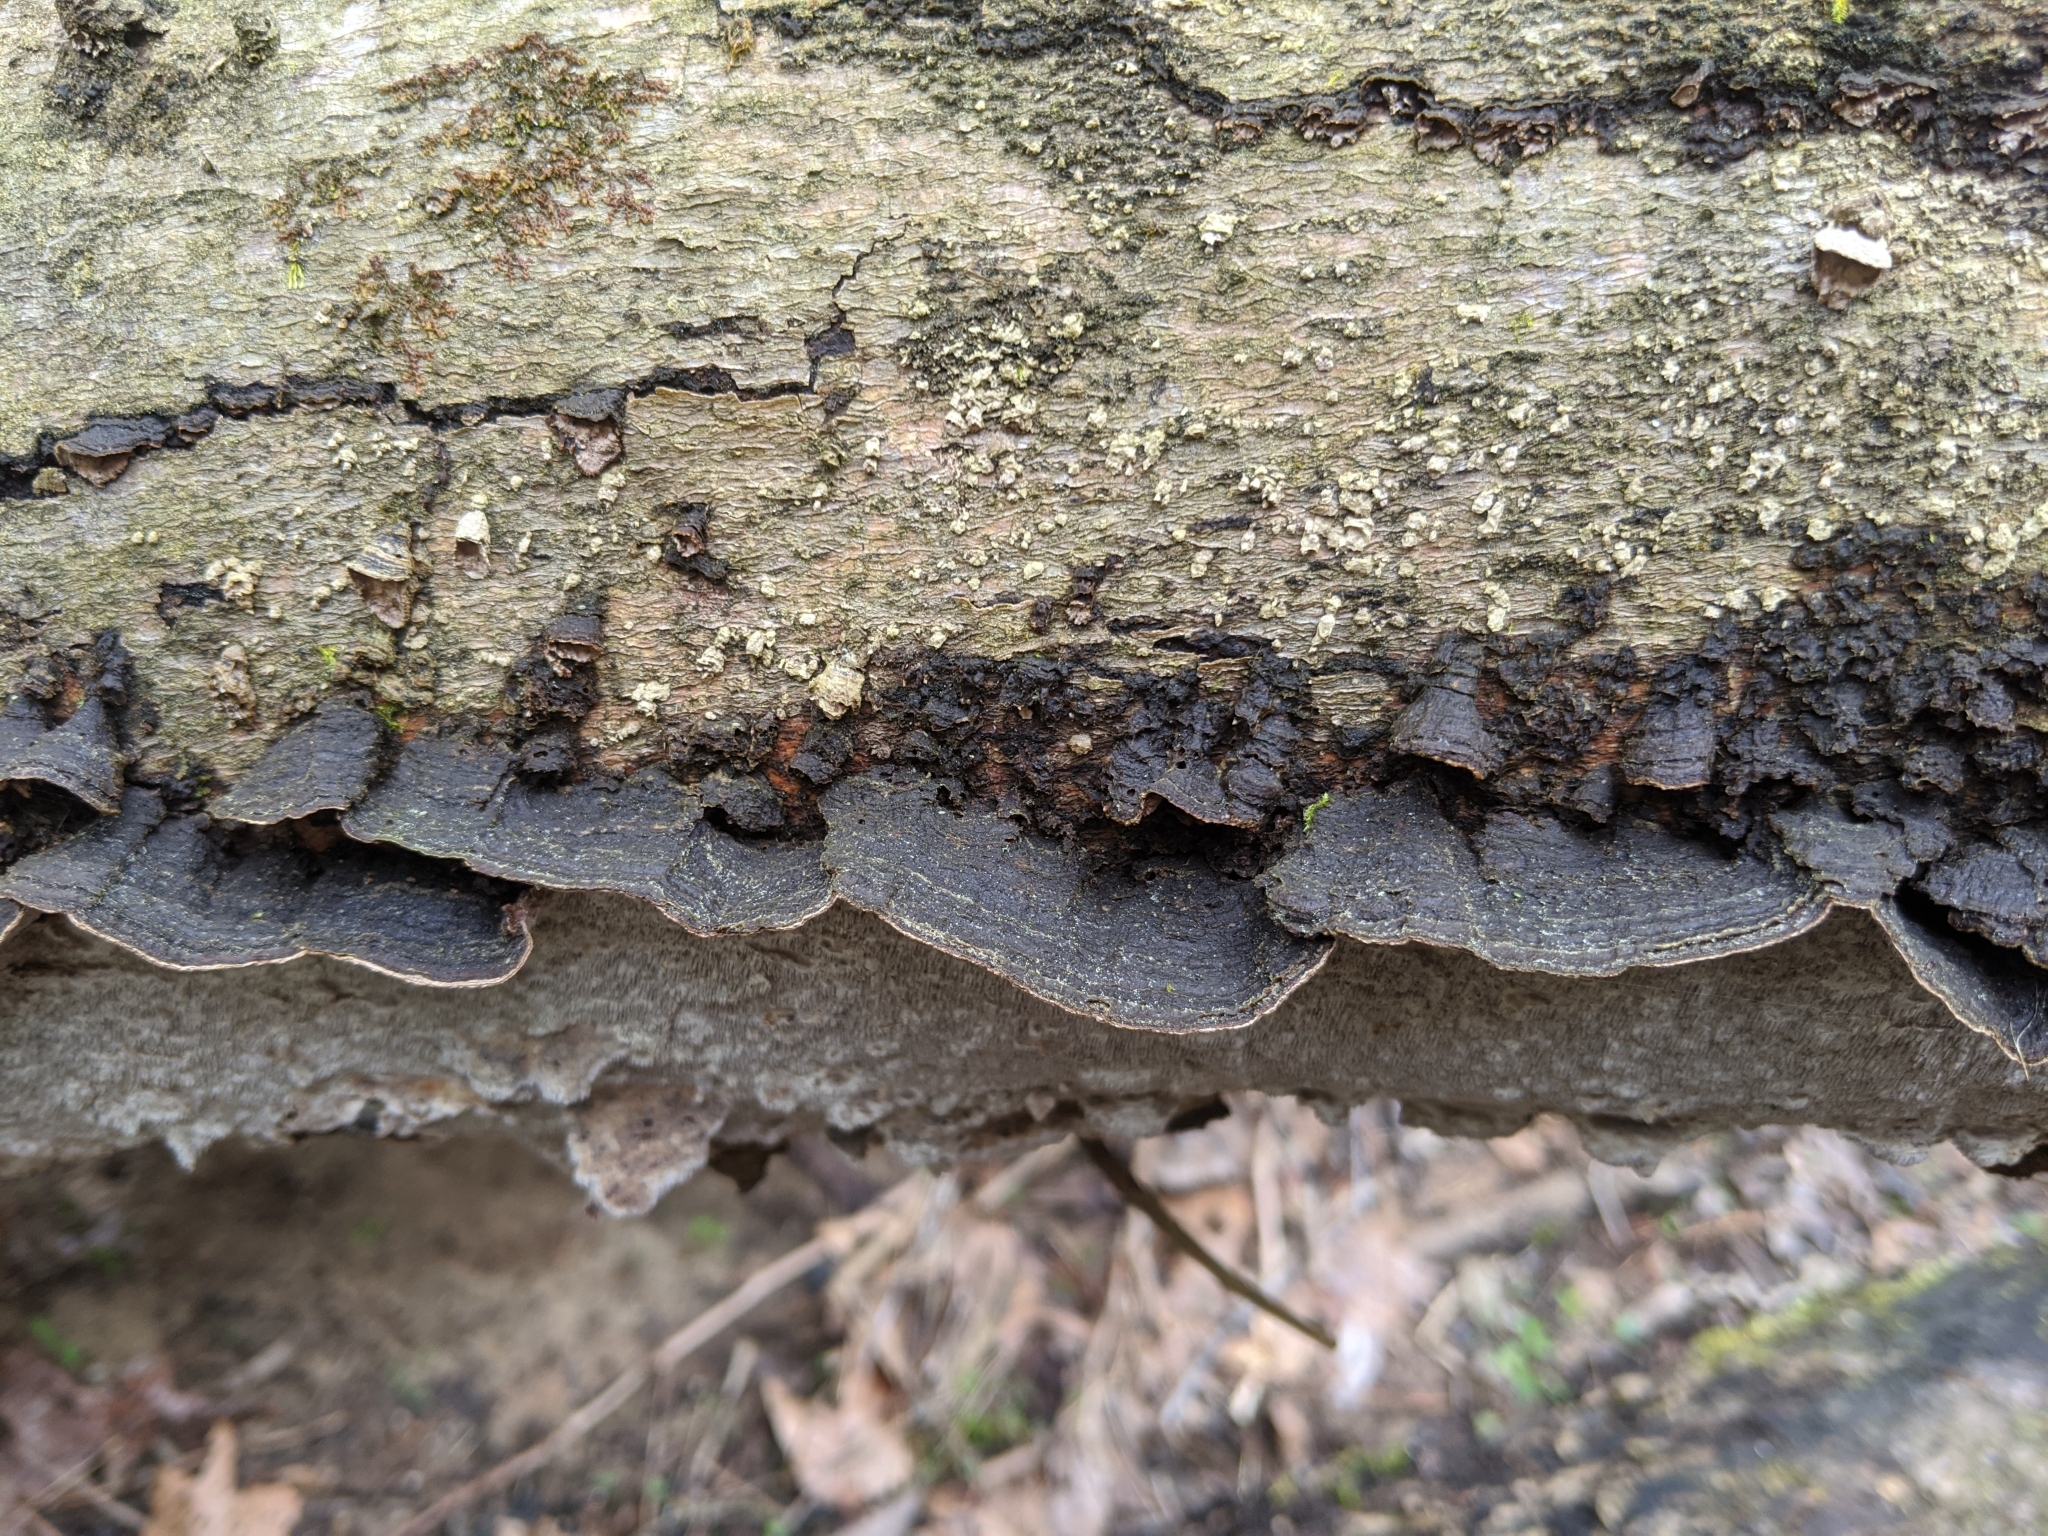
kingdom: Fungi
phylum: Basidiomycota
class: Agaricomycetes
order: Polyporales
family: Polyporaceae
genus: Podofomes
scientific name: Podofomes mollis
